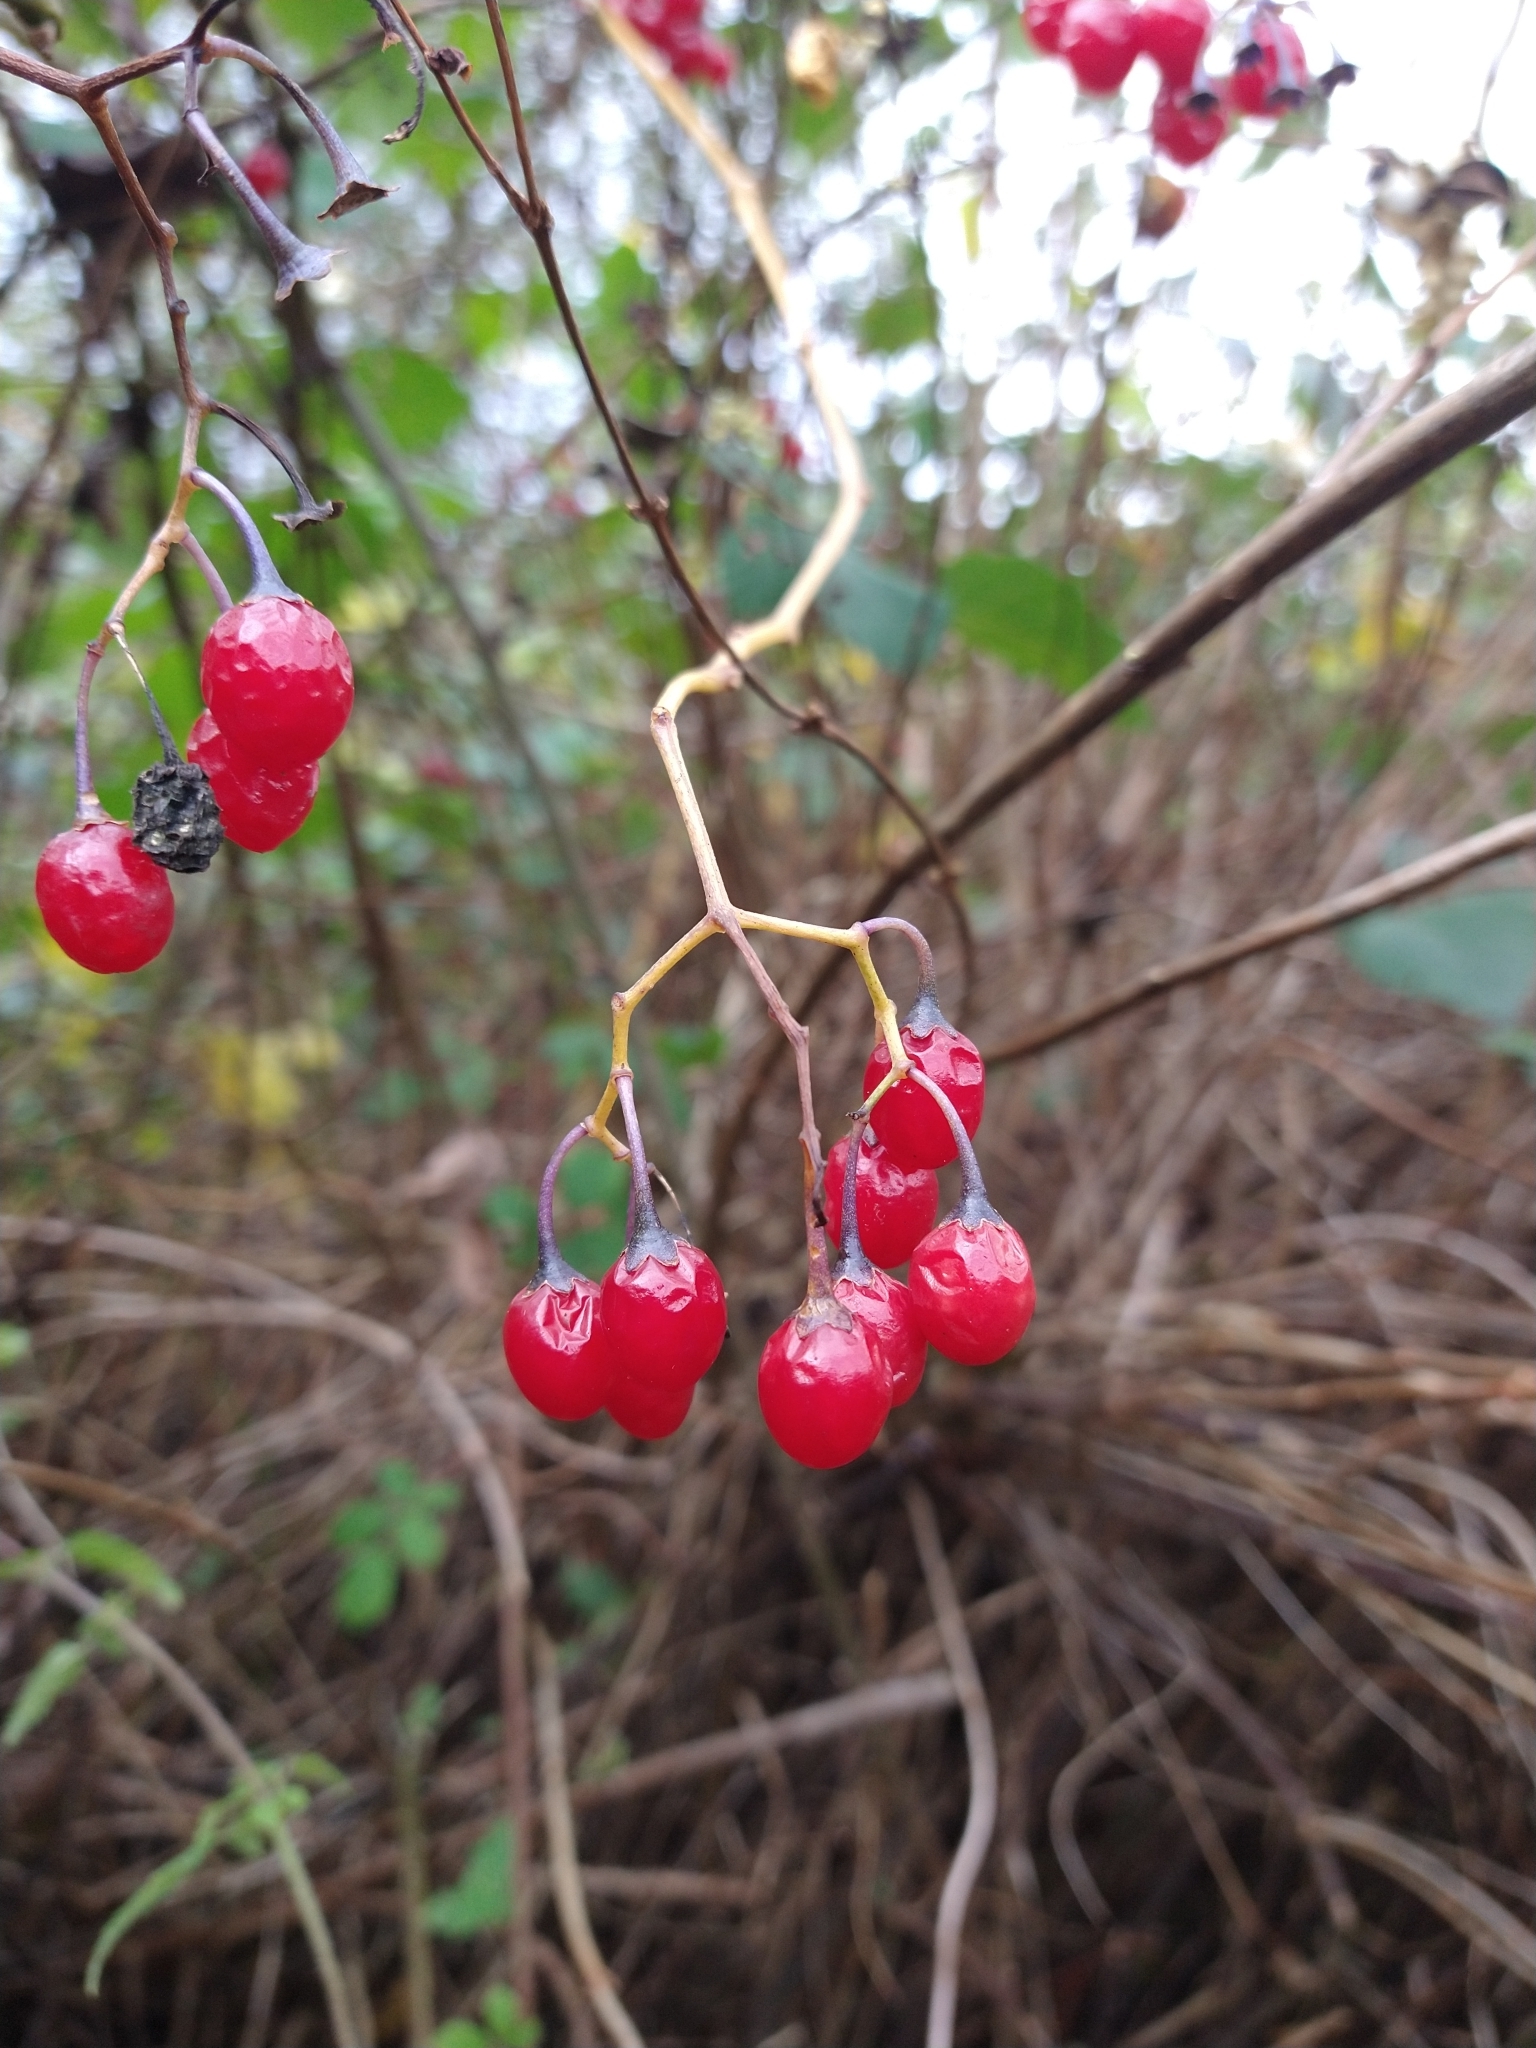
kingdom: Plantae
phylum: Tracheophyta
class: Magnoliopsida
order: Solanales
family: Solanaceae
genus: Solanum
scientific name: Solanum dulcamara
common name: Climbing nightshade
